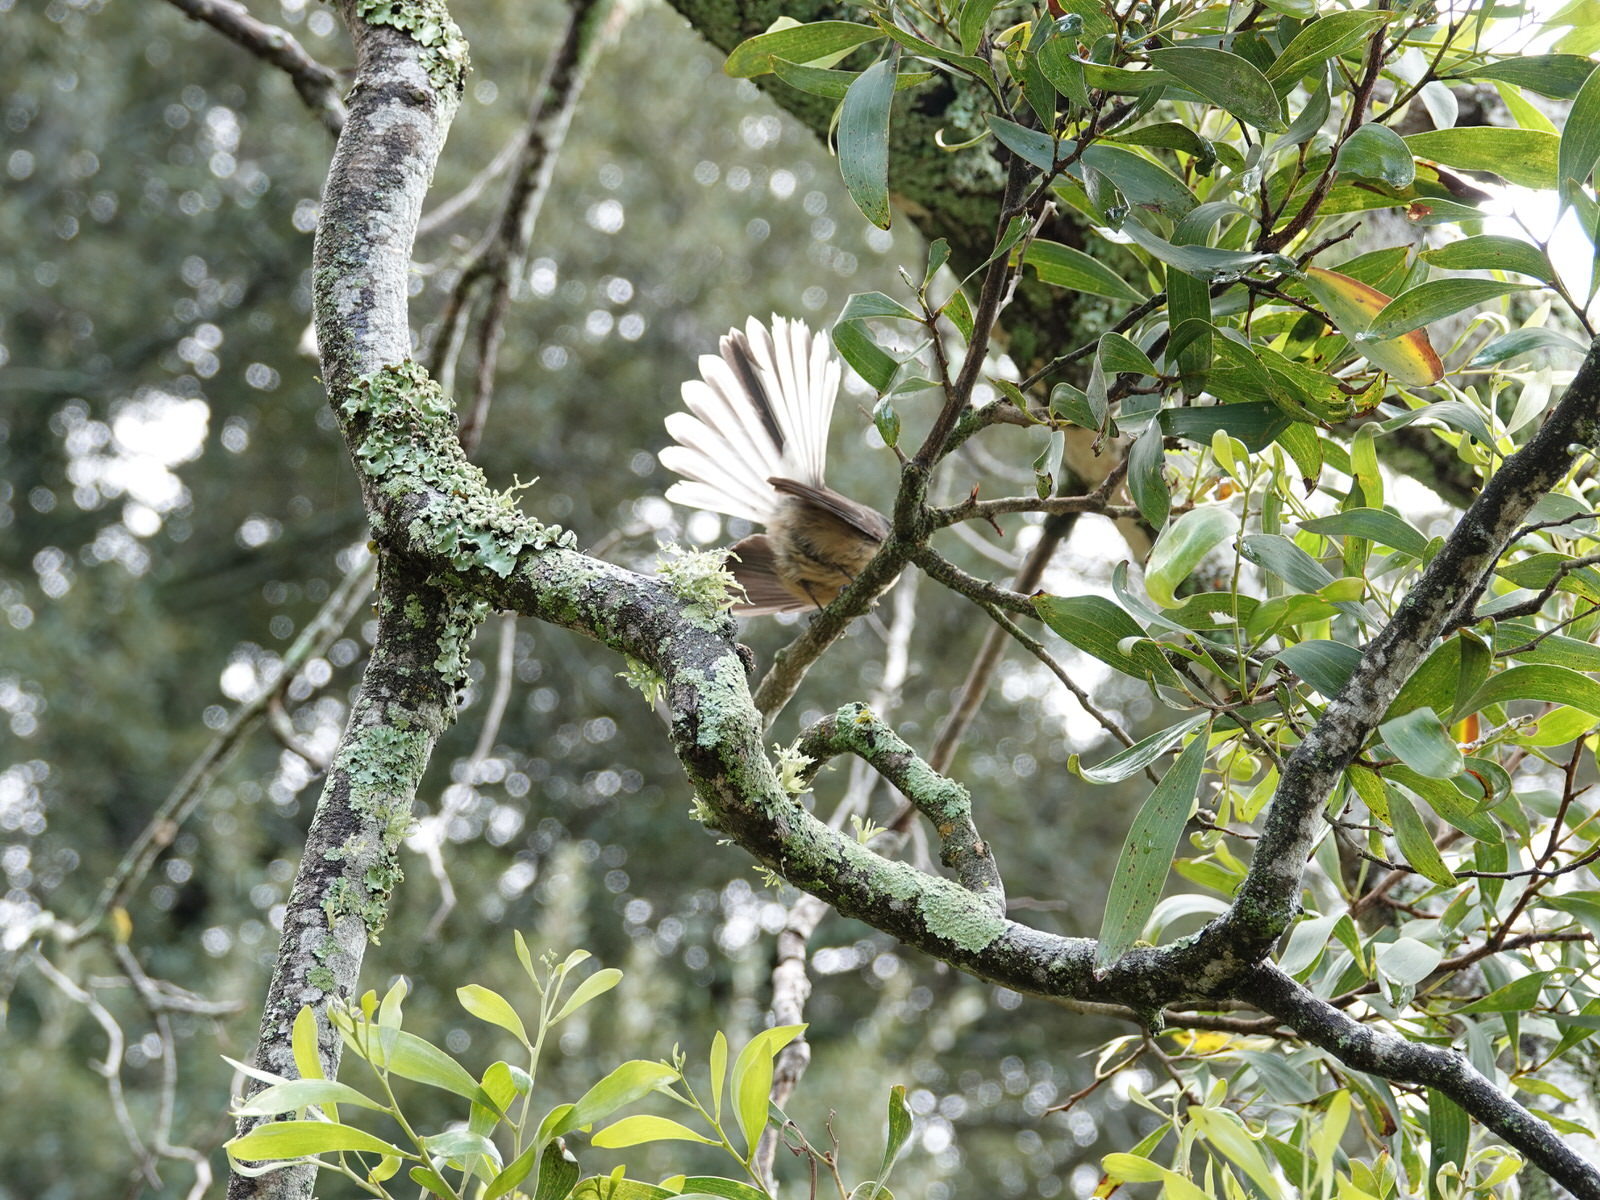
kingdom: Animalia
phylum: Chordata
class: Aves
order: Passeriformes
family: Rhipiduridae
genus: Rhipidura
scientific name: Rhipidura fuliginosa
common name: New zealand fantail
